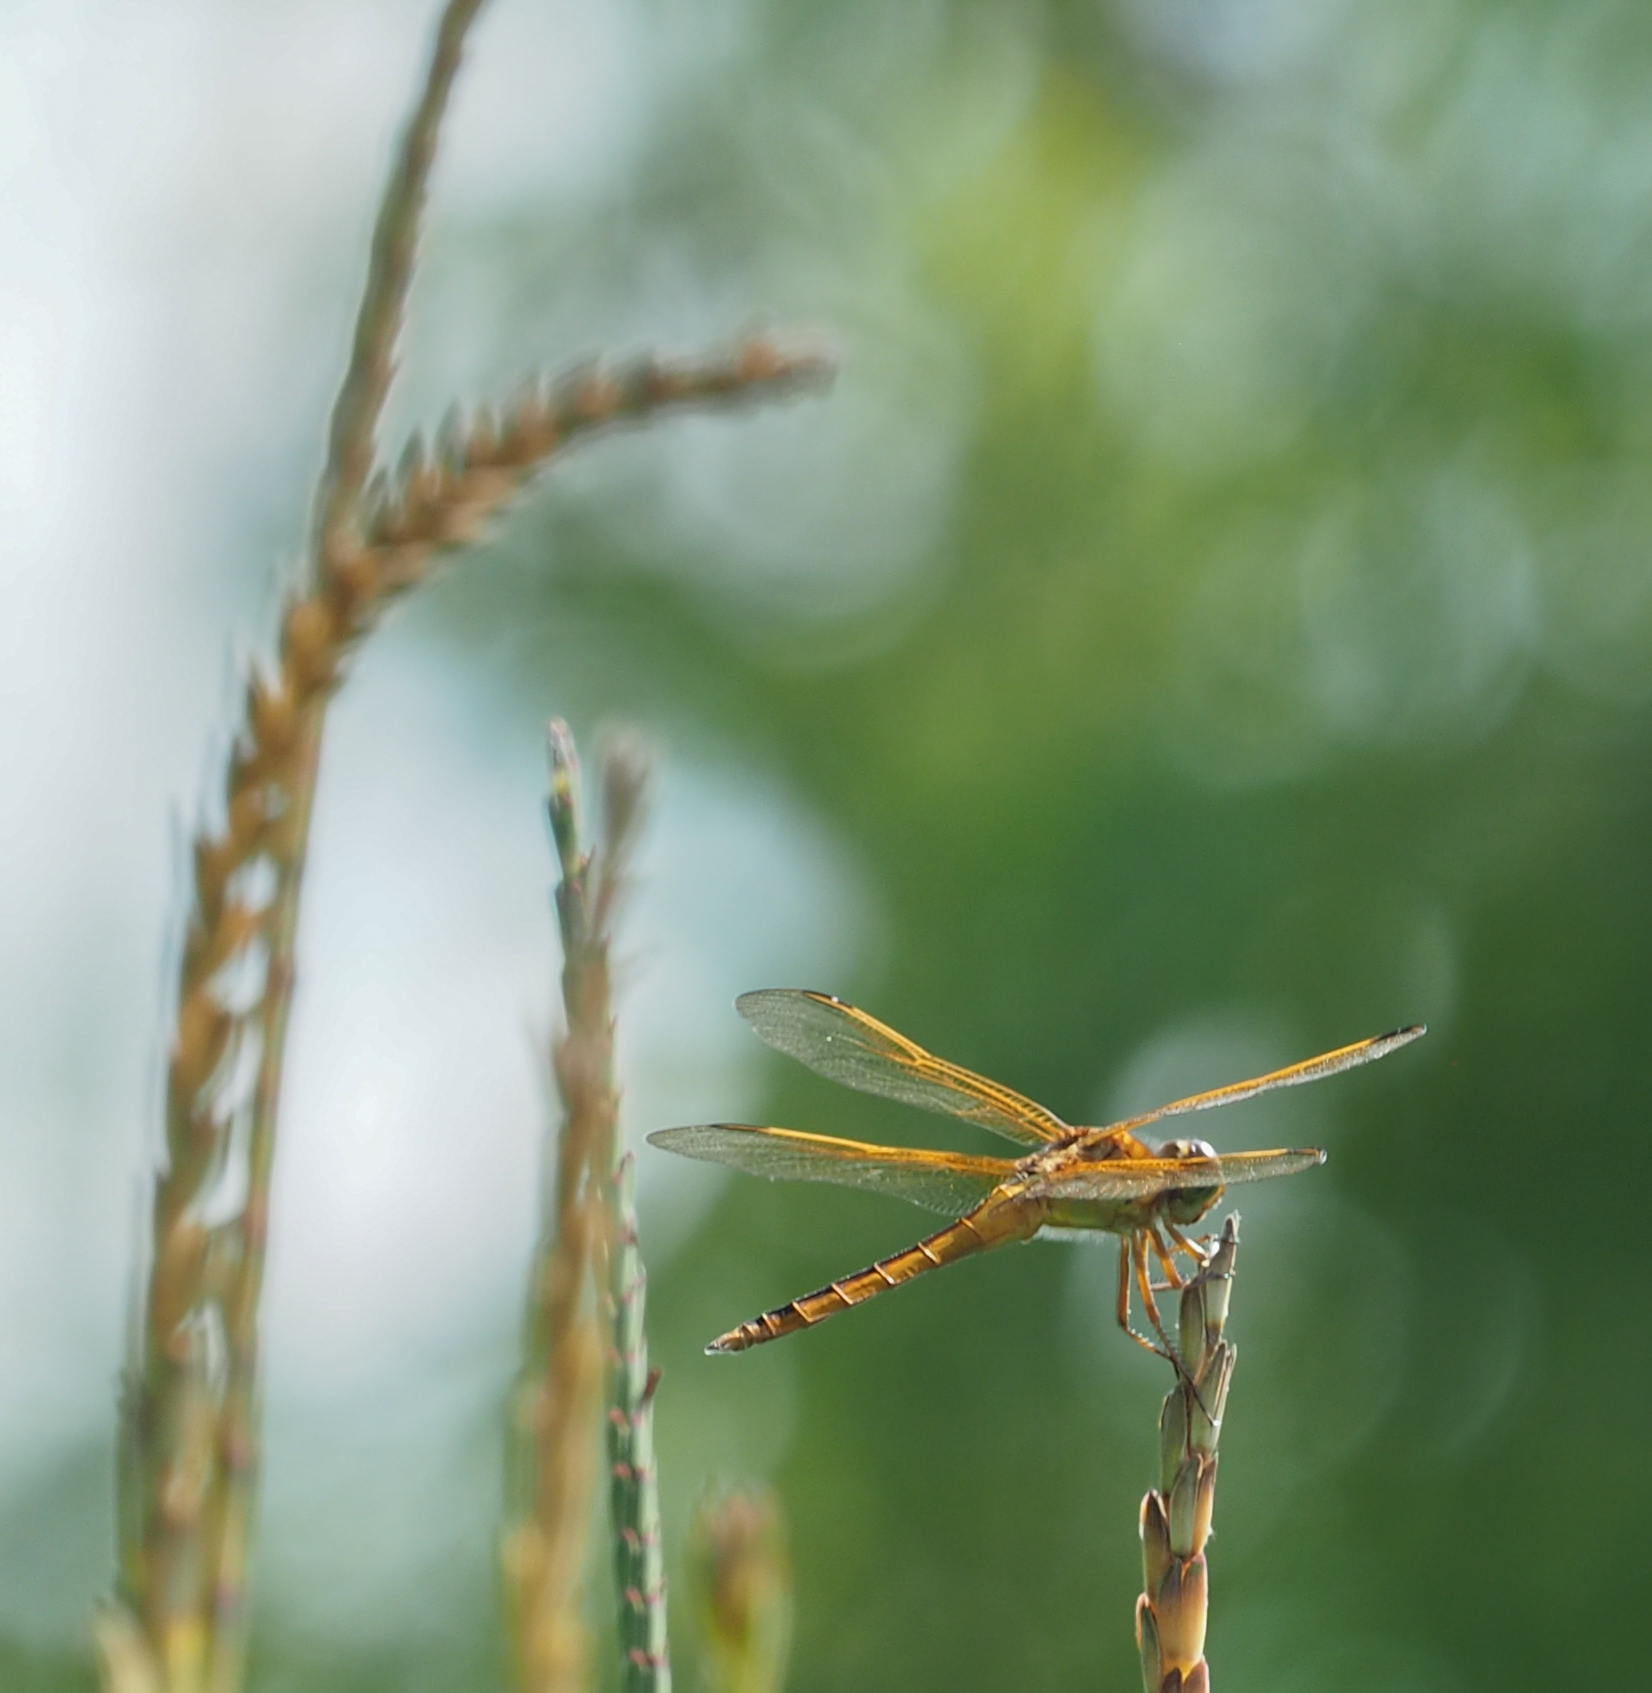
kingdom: Animalia
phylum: Arthropoda
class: Insecta
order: Odonata
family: Libellulidae
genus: Libellula
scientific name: Libellula needhami
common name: Needham's skimmer
